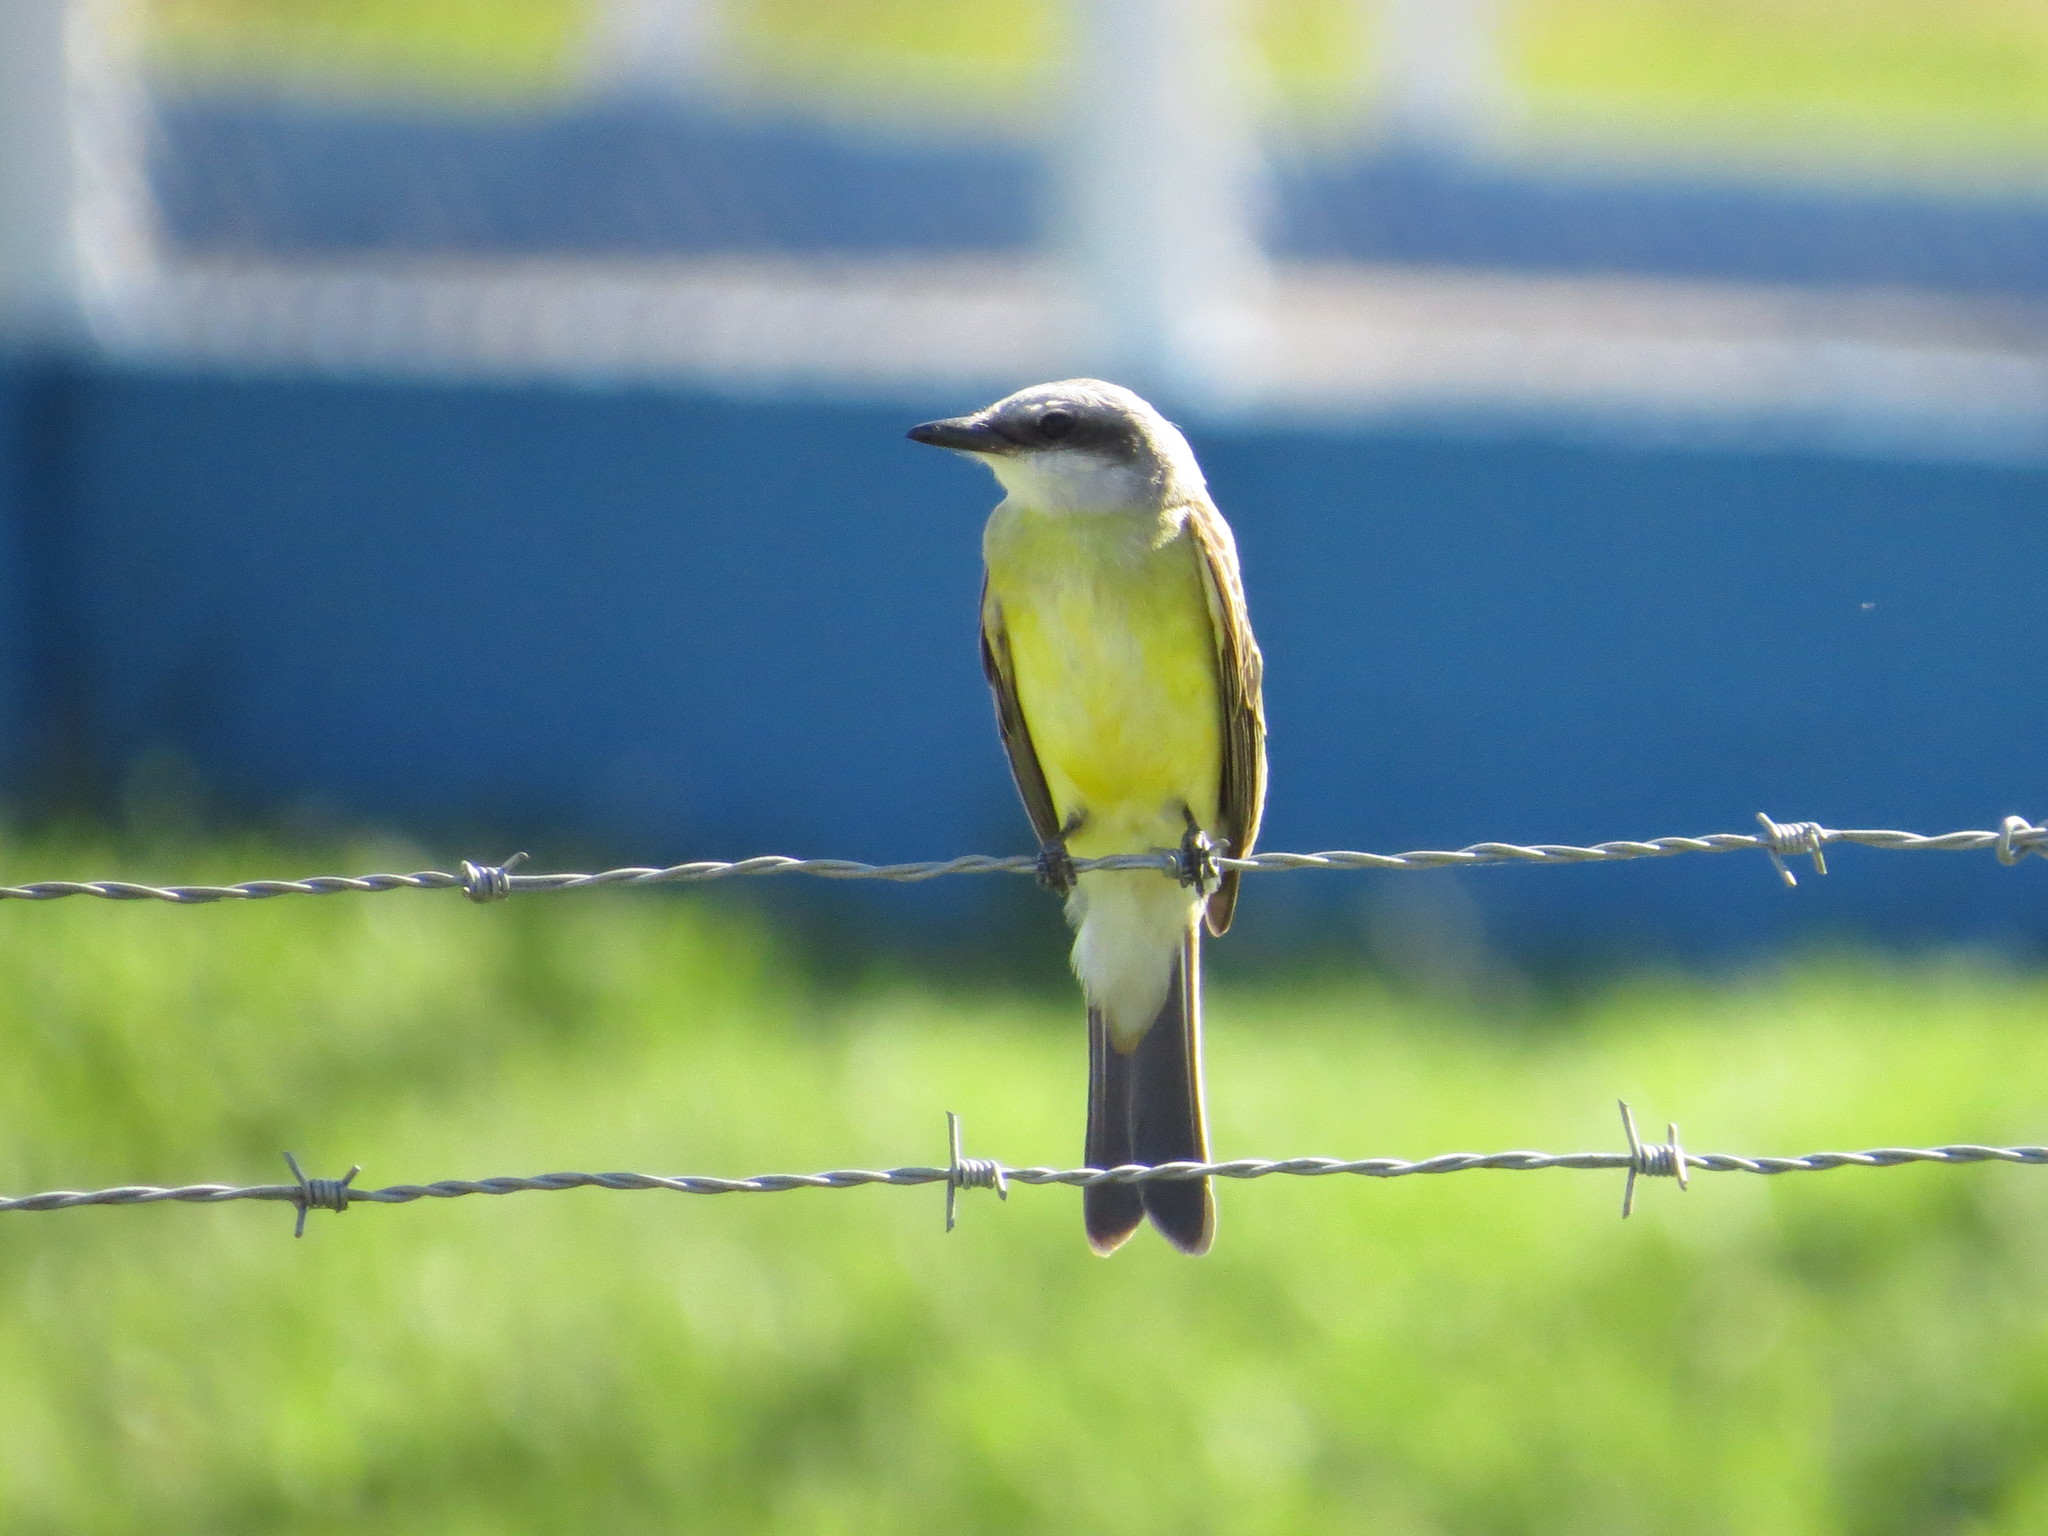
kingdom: Animalia
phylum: Chordata
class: Aves
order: Passeriformes
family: Tyrannidae
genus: Tyrannus
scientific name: Tyrannus melancholicus
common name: Tropical kingbird
